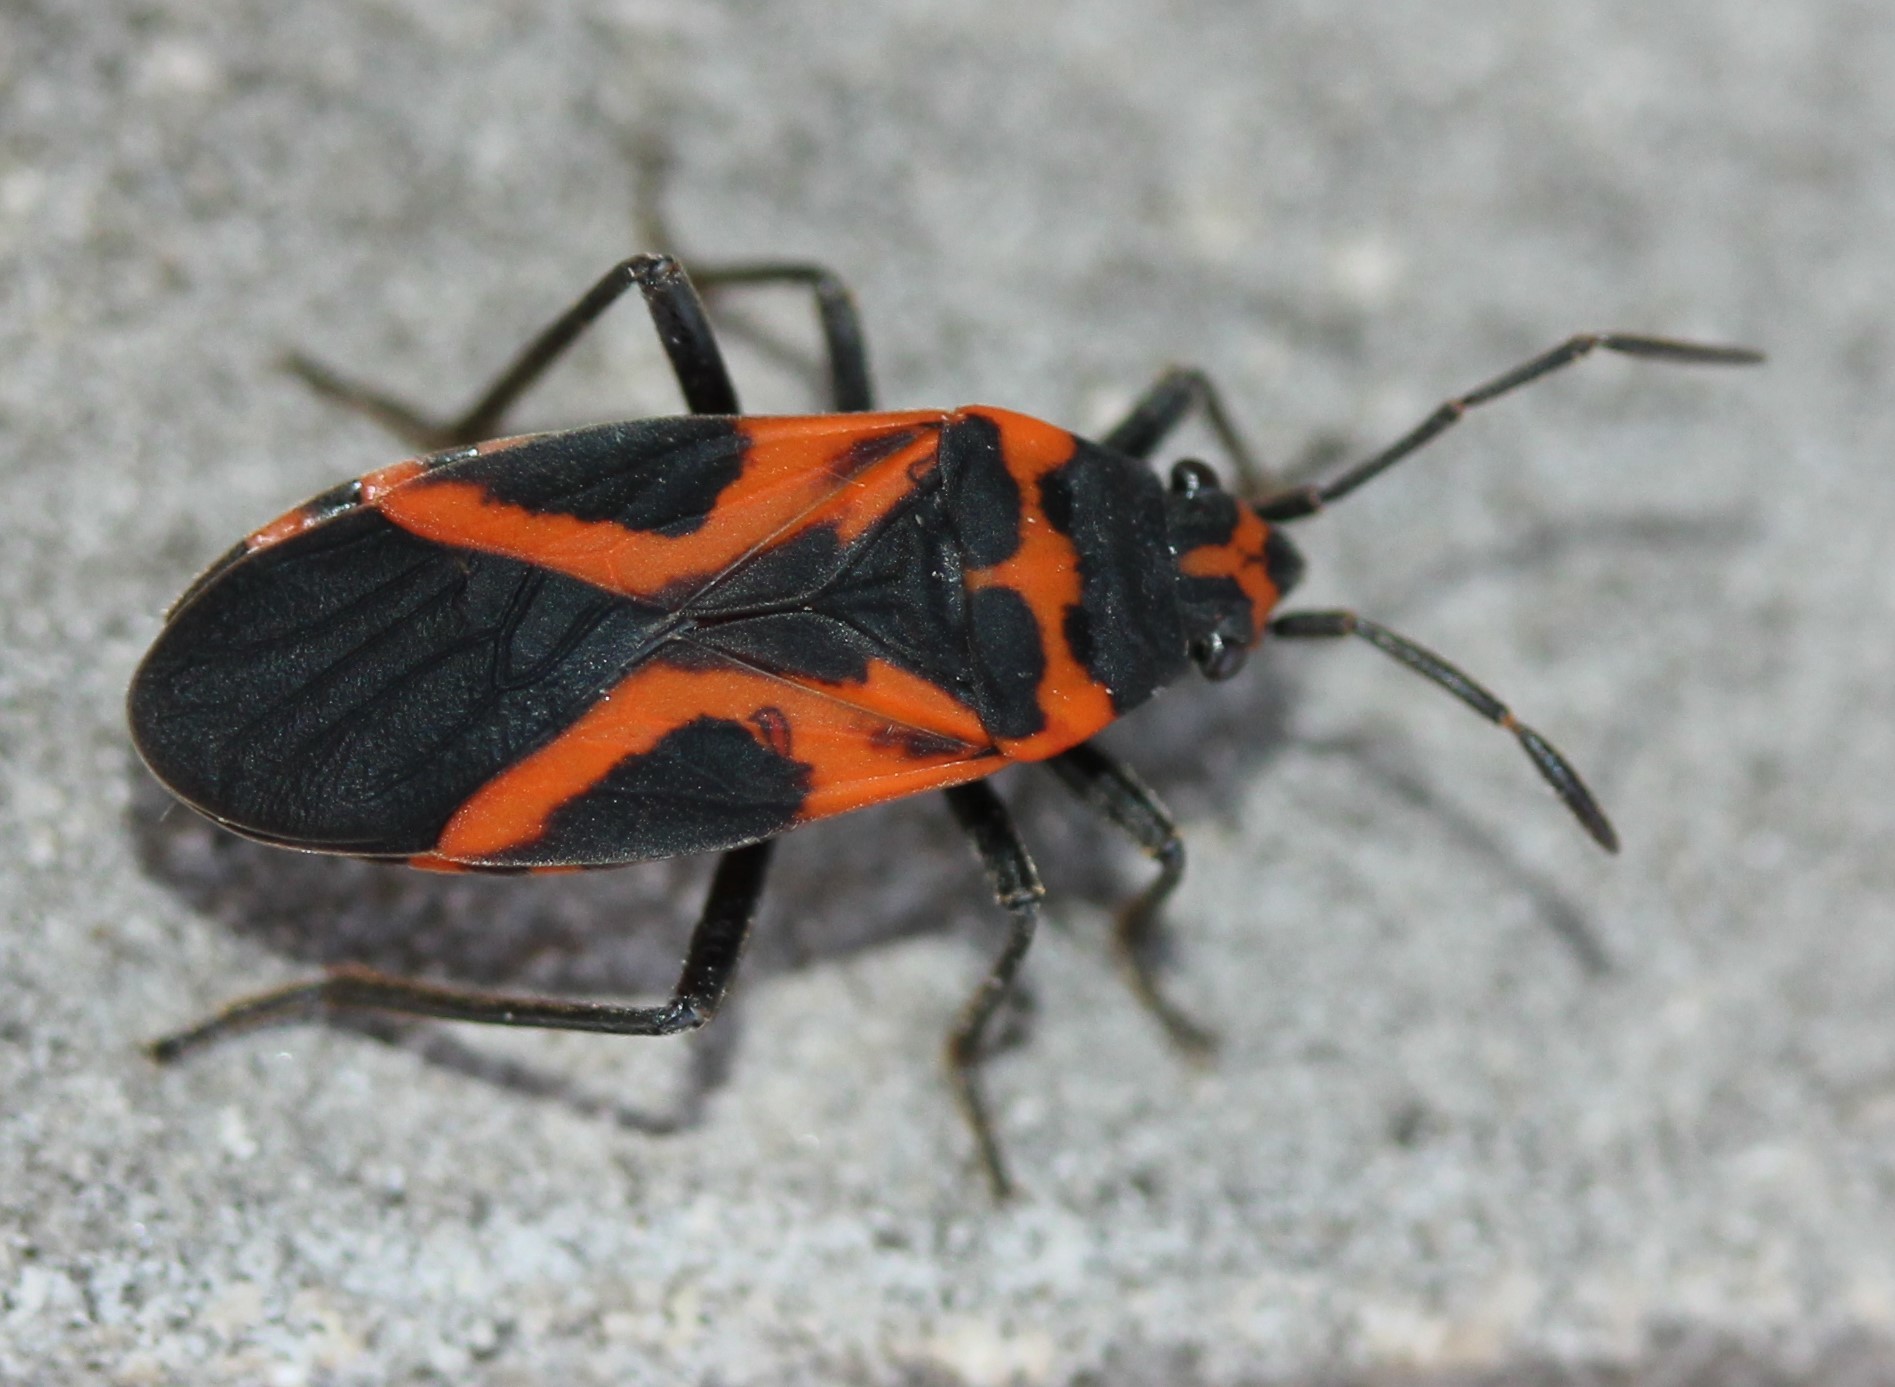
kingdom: Animalia
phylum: Arthropoda
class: Insecta
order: Hemiptera
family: Lygaeidae
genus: Lygaeus
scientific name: Lygaeus turcicus
